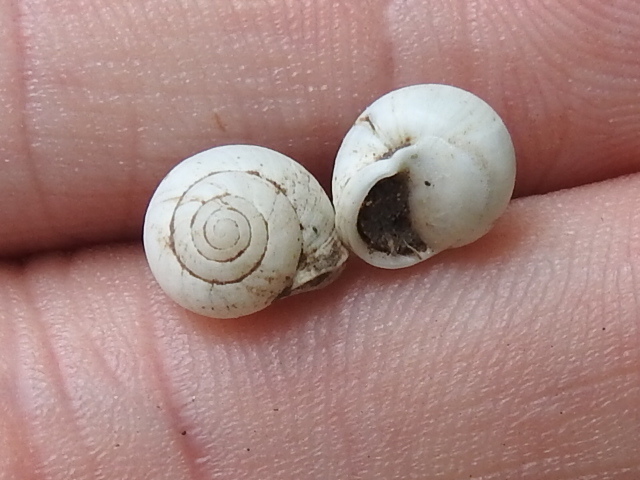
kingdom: Animalia
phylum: Mollusca
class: Gastropoda
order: Cycloneritida
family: Helicinidae
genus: Helicina
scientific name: Helicina orbiculata
